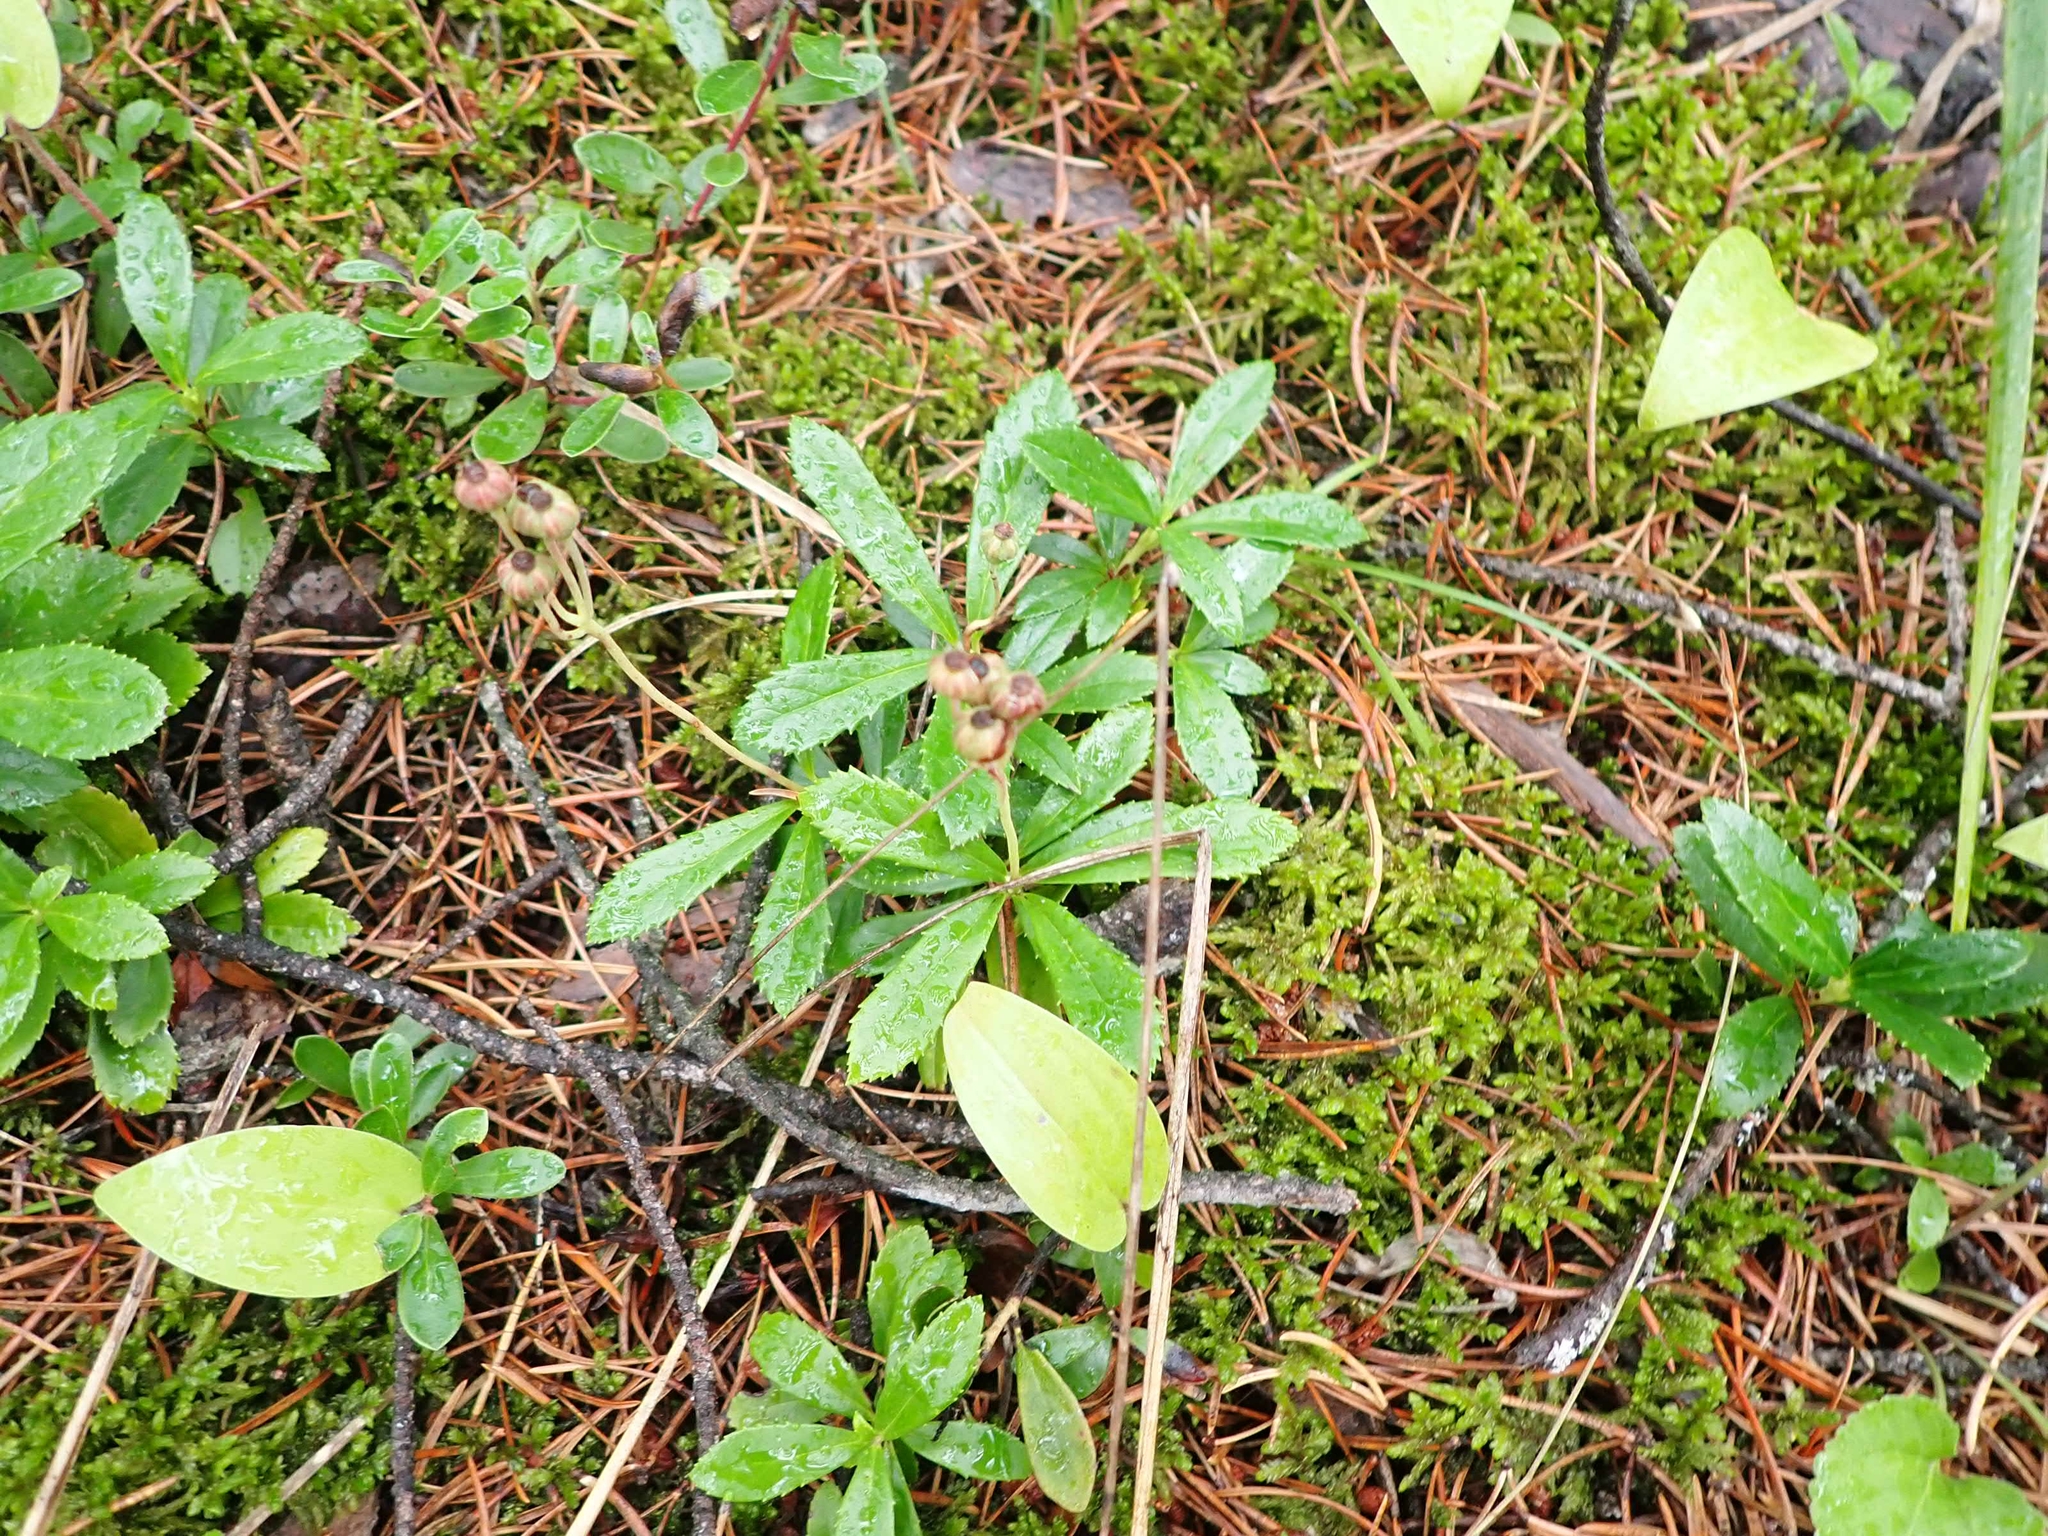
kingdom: Plantae
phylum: Tracheophyta
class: Magnoliopsida
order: Ericales
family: Ericaceae
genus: Chimaphila
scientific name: Chimaphila umbellata
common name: Pipsissewa
